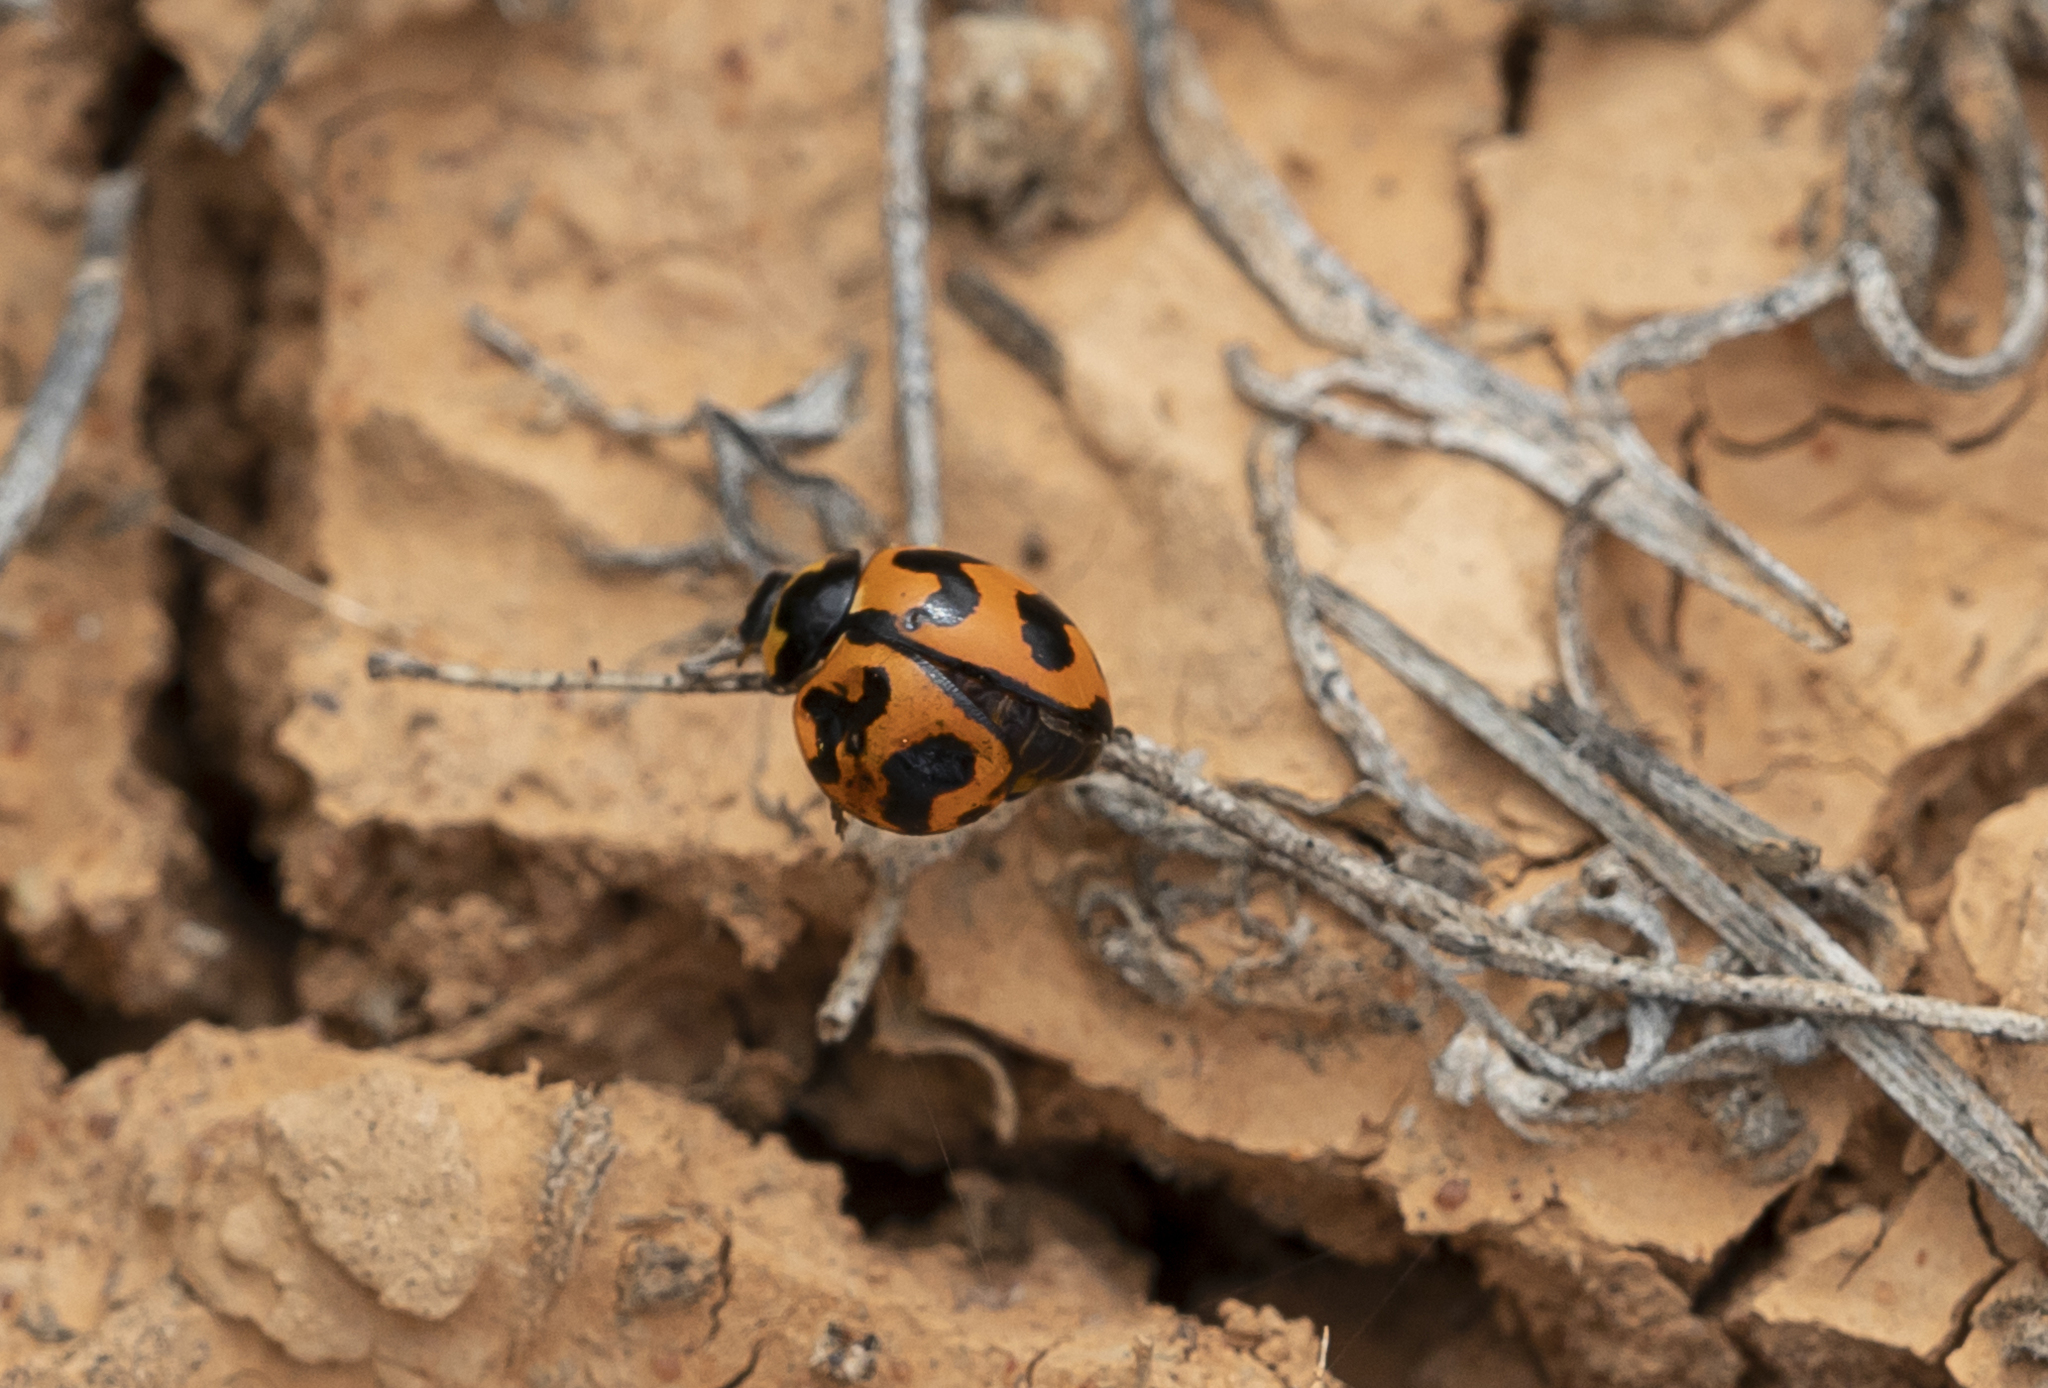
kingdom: Animalia
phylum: Arthropoda
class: Insecta
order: Coleoptera
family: Coccinellidae
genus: Coccinella
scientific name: Coccinella transversalis
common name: Transverse lady beetle
